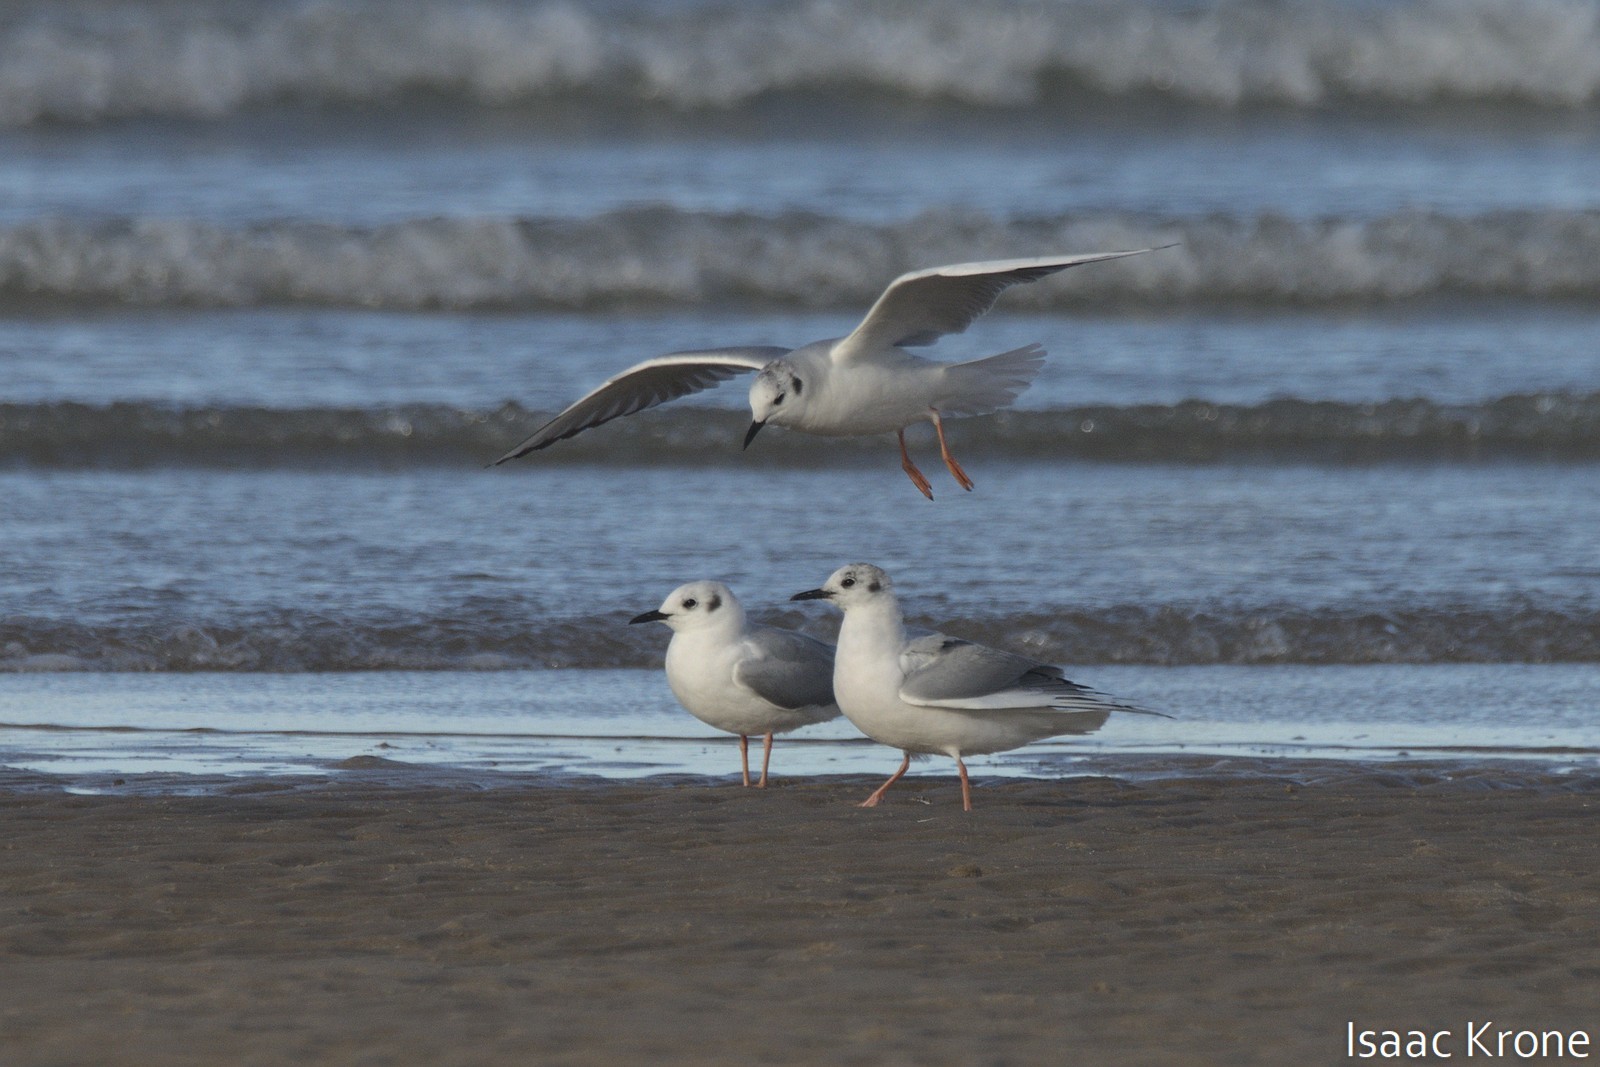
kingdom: Animalia
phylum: Chordata
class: Aves
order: Charadriiformes
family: Laridae
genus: Chroicocephalus
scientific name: Chroicocephalus philadelphia
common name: Bonaparte's gull
